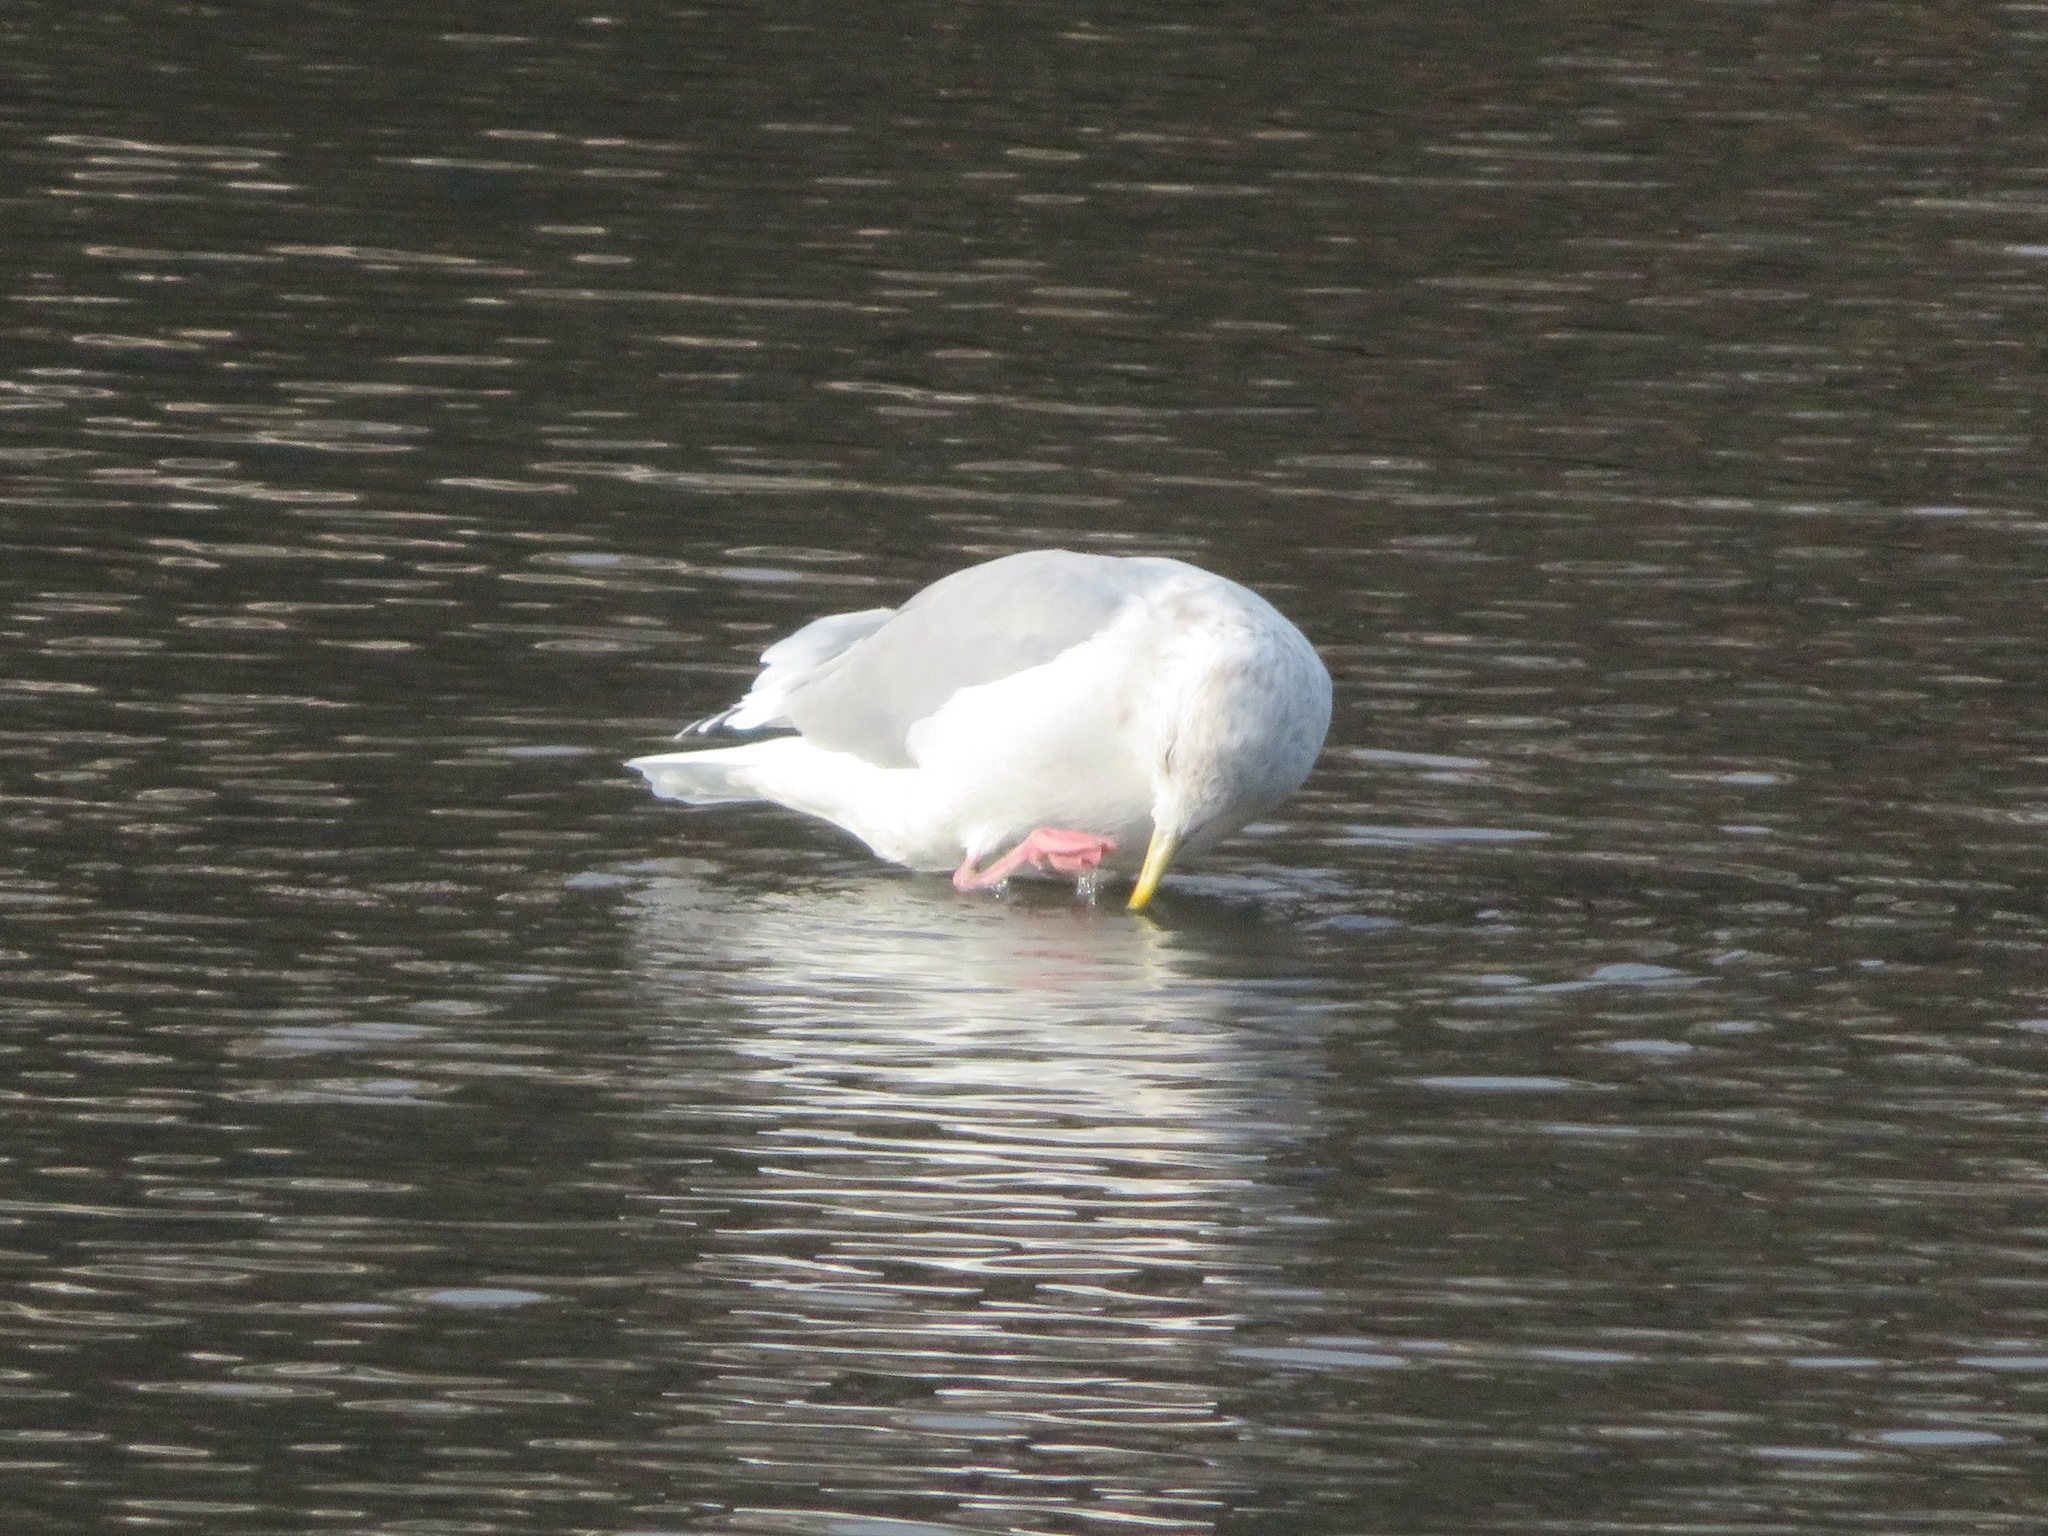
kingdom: Animalia
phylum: Chordata
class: Aves
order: Charadriiformes
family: Laridae
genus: Larus
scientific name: Larus vegae
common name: Vega gull
